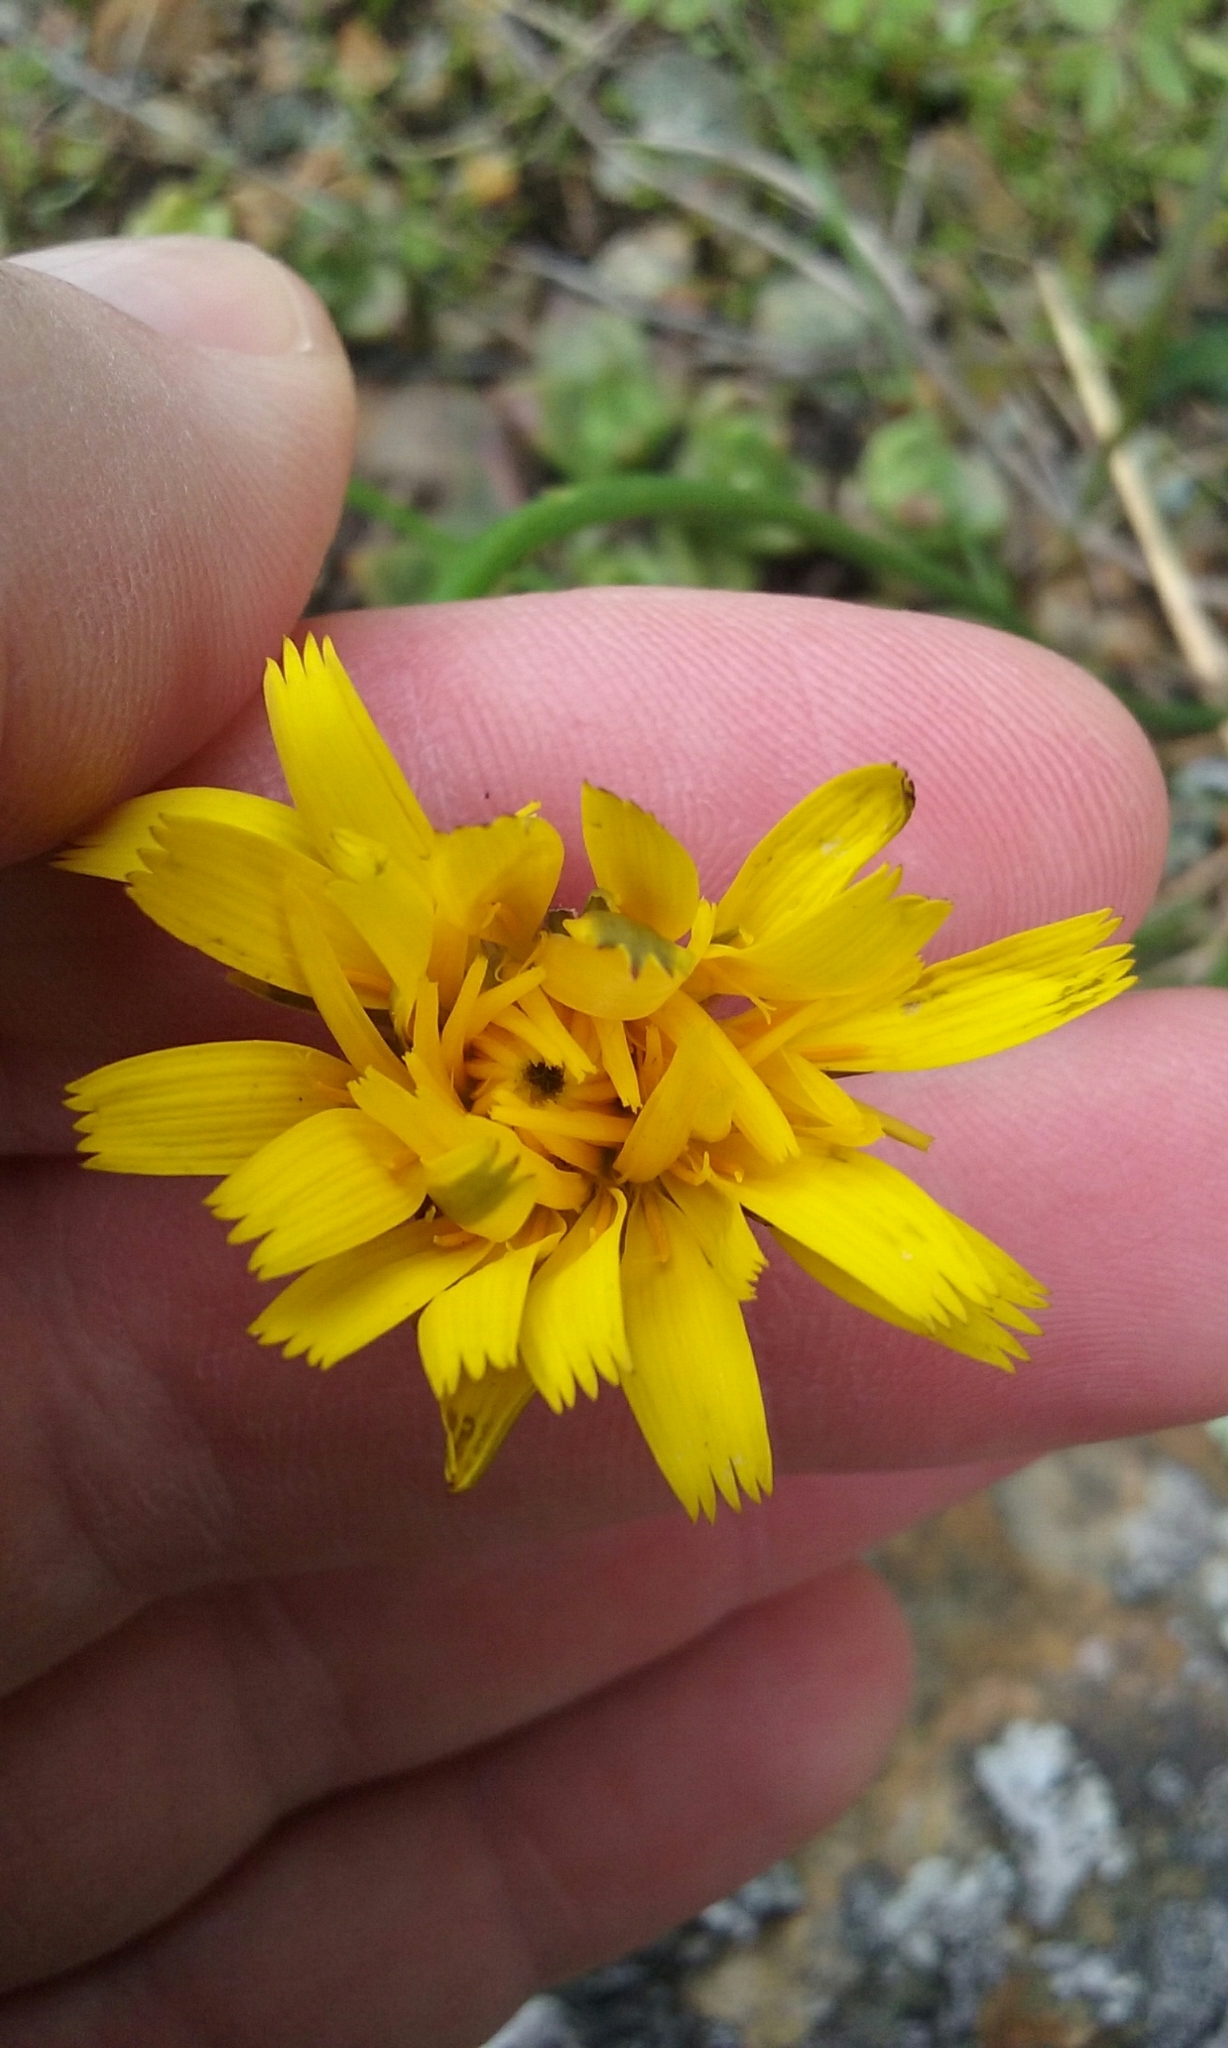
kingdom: Plantae
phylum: Tracheophyta
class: Magnoliopsida
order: Asterales
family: Asteraceae
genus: Hypochaeris
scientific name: Hypochaeris radicata
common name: Flatweed
